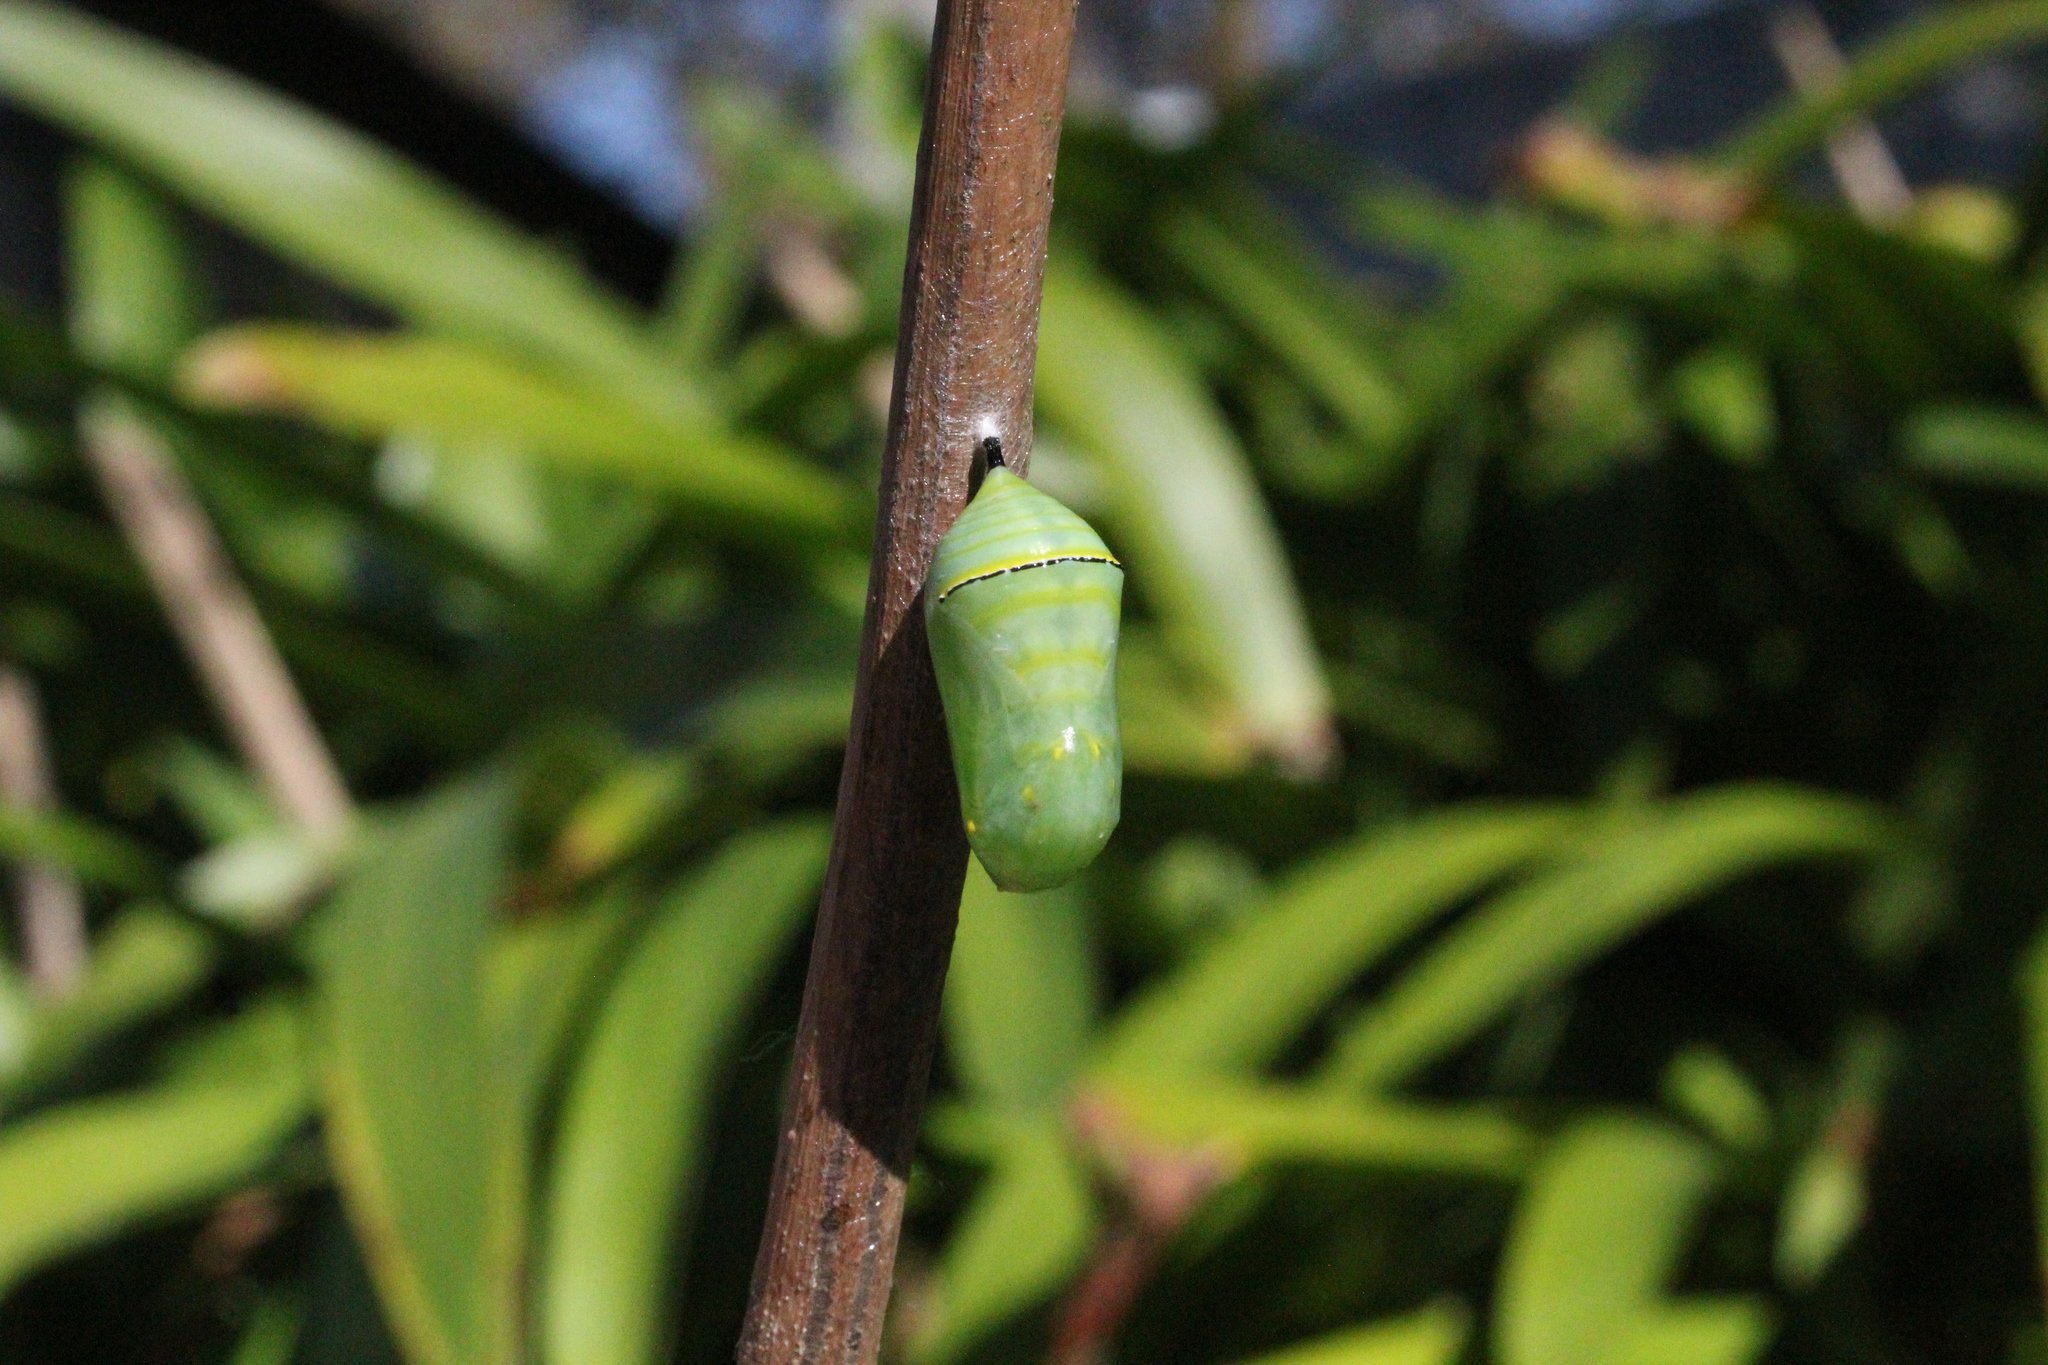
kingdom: Animalia
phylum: Arthropoda
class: Insecta
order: Lepidoptera
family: Nymphalidae
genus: Danaus
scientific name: Danaus erippus
